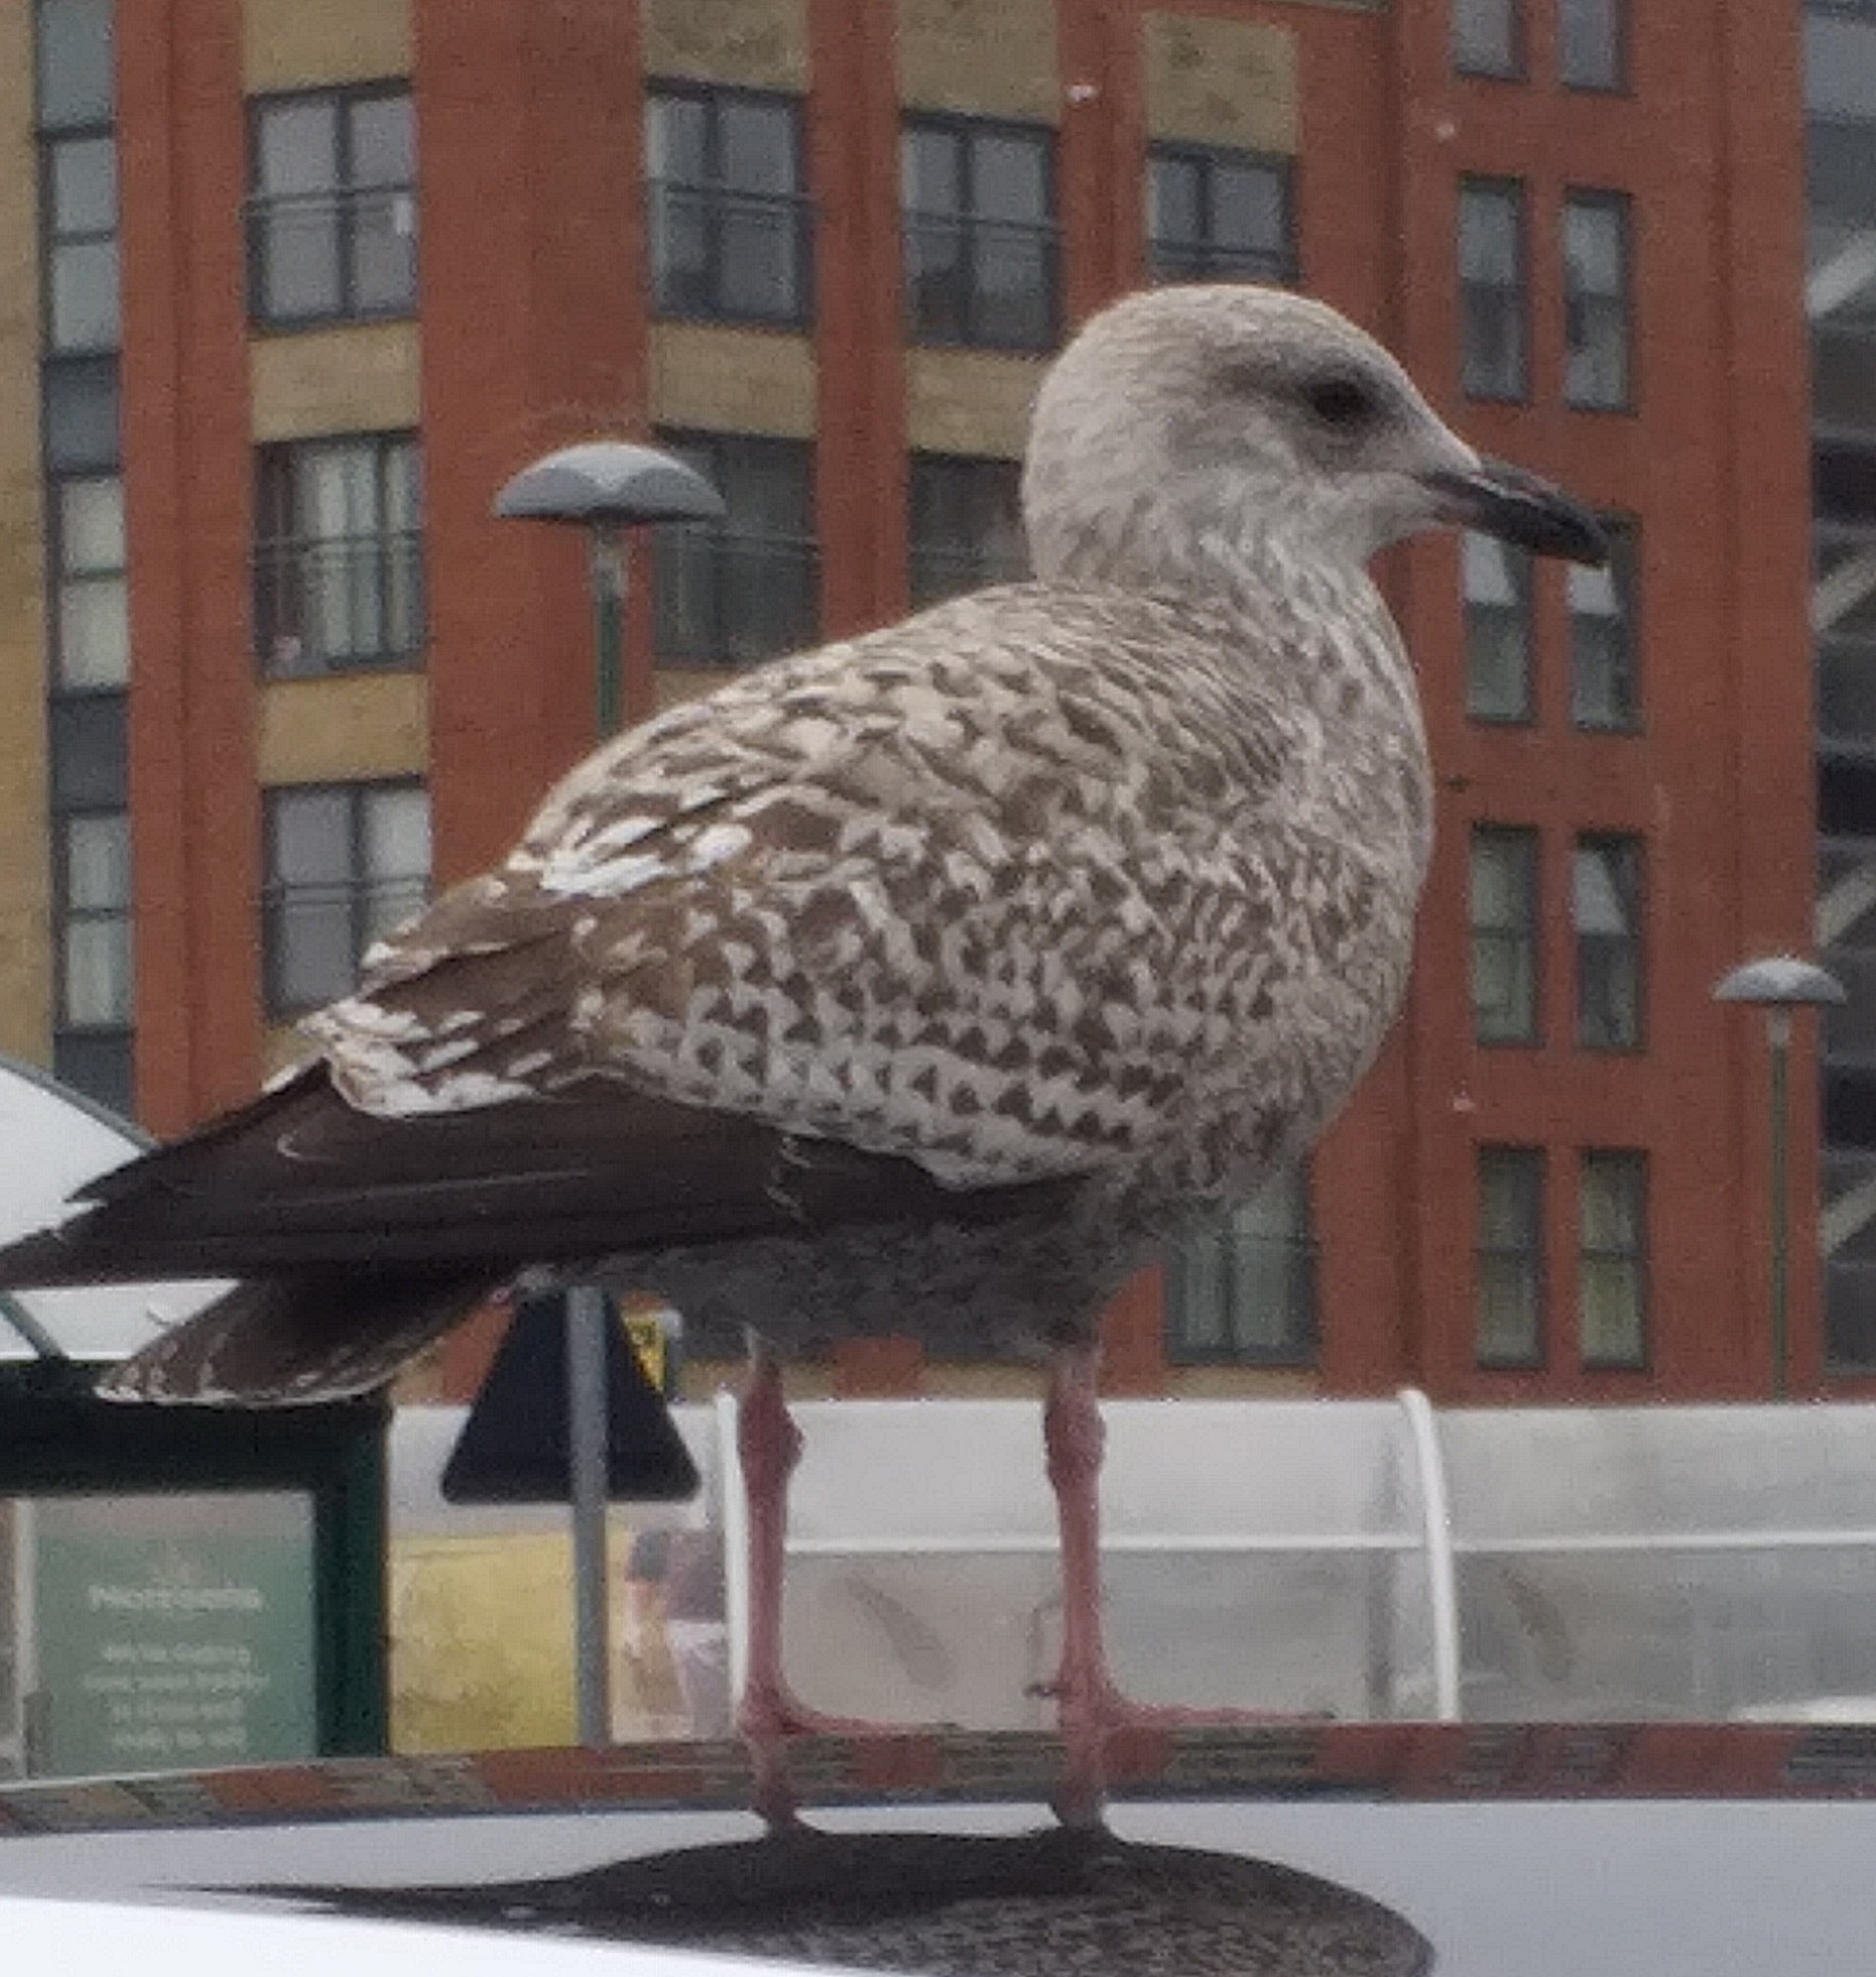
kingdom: Animalia
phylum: Chordata
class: Aves
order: Charadriiformes
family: Laridae
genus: Larus
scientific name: Larus argentatus
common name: Herring gull
